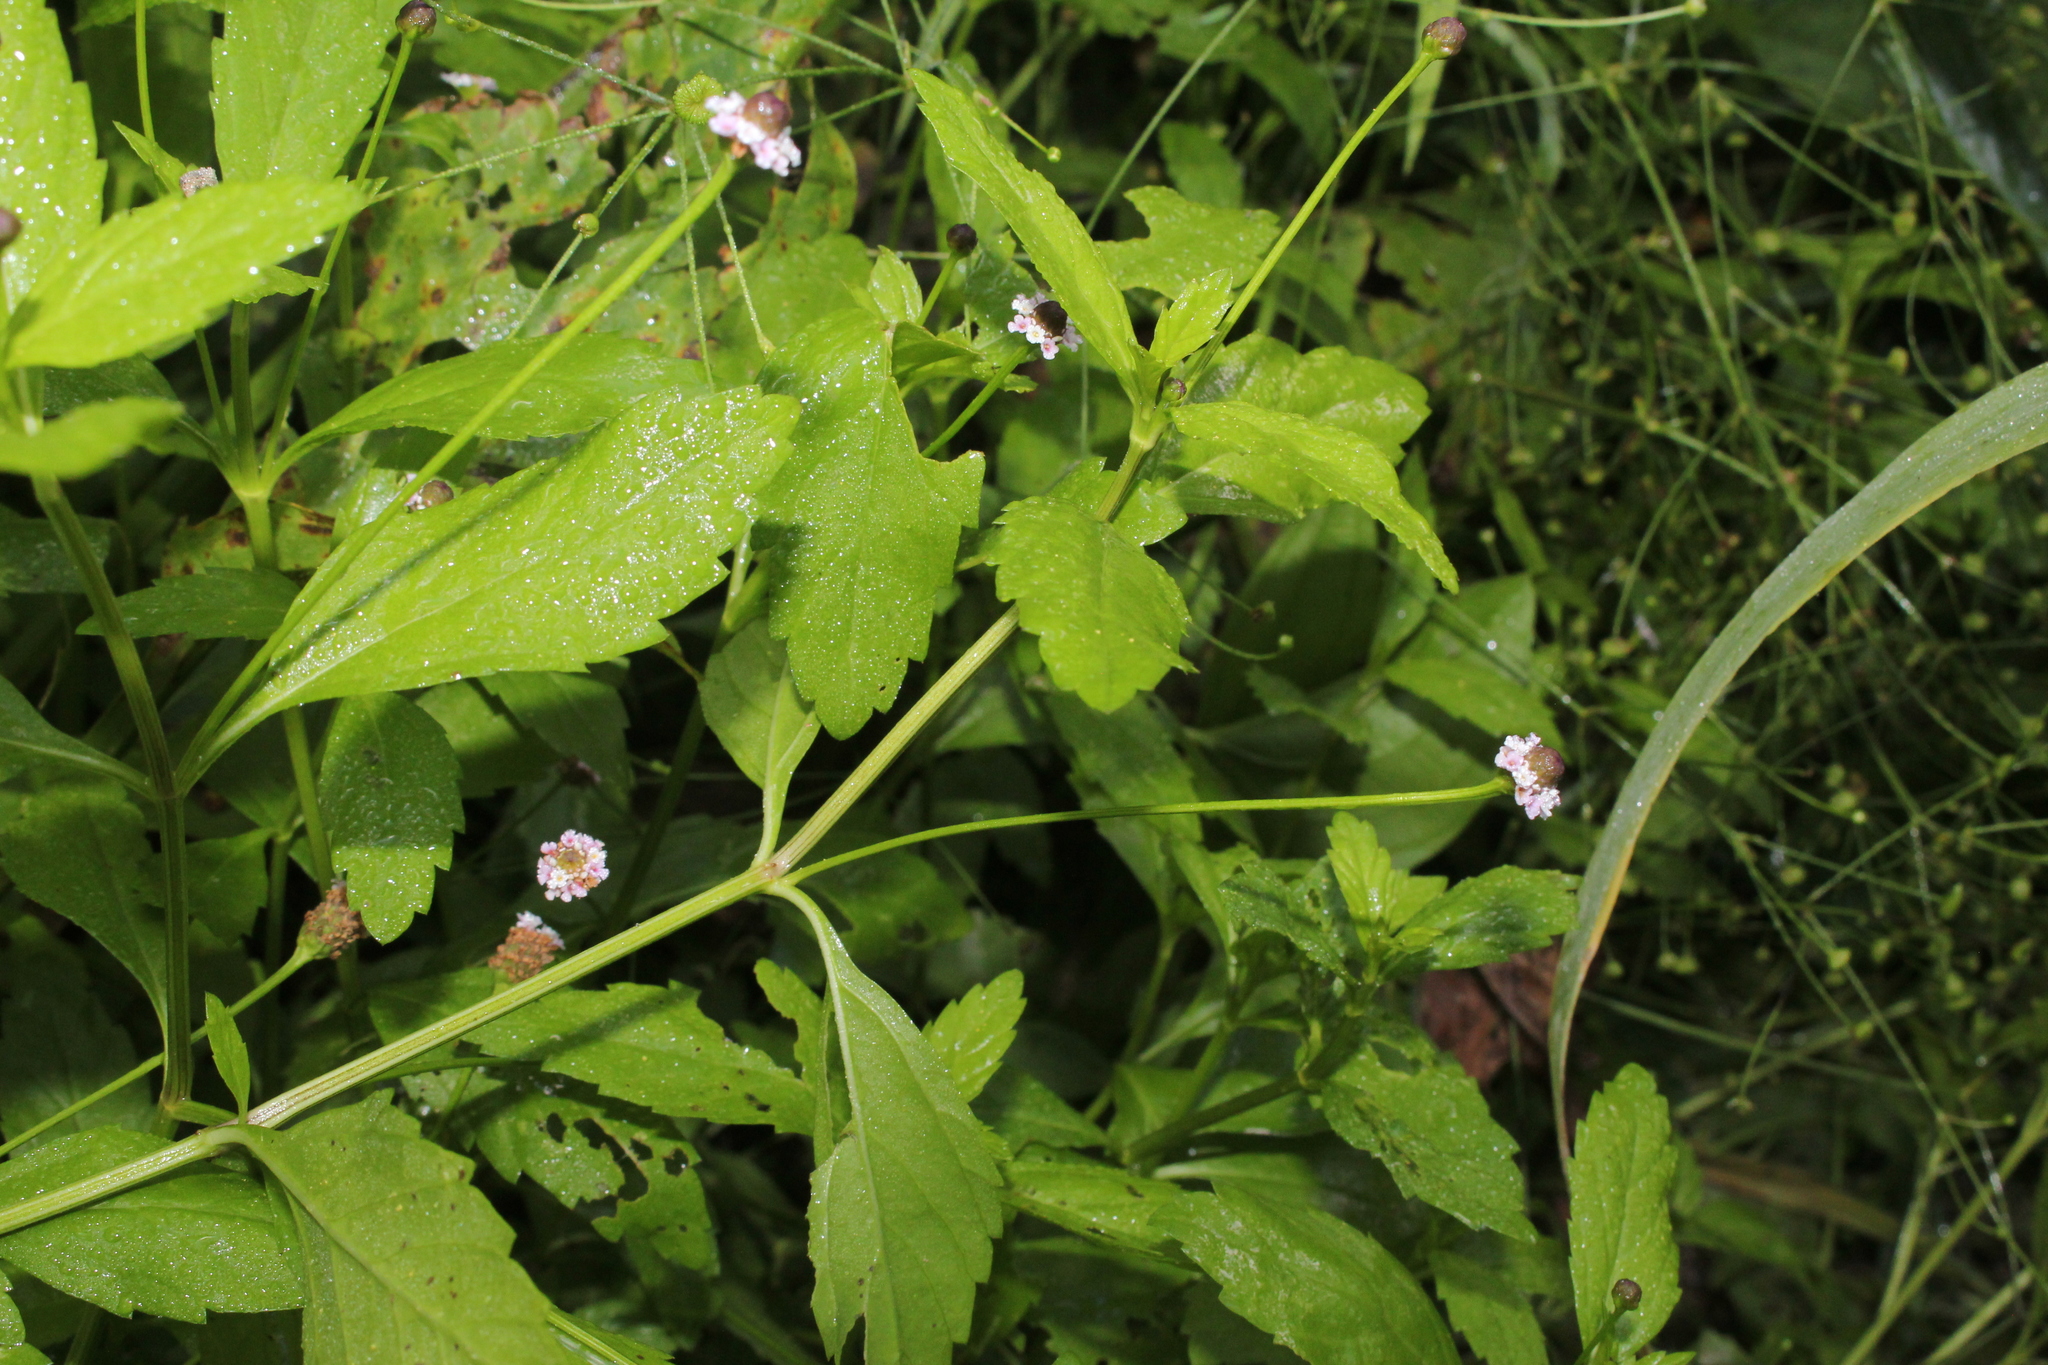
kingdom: Plantae
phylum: Tracheophyta
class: Magnoliopsida
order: Lamiales
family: Verbenaceae
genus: Phyla
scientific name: Phyla lanceolata
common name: Northern fogfruit
